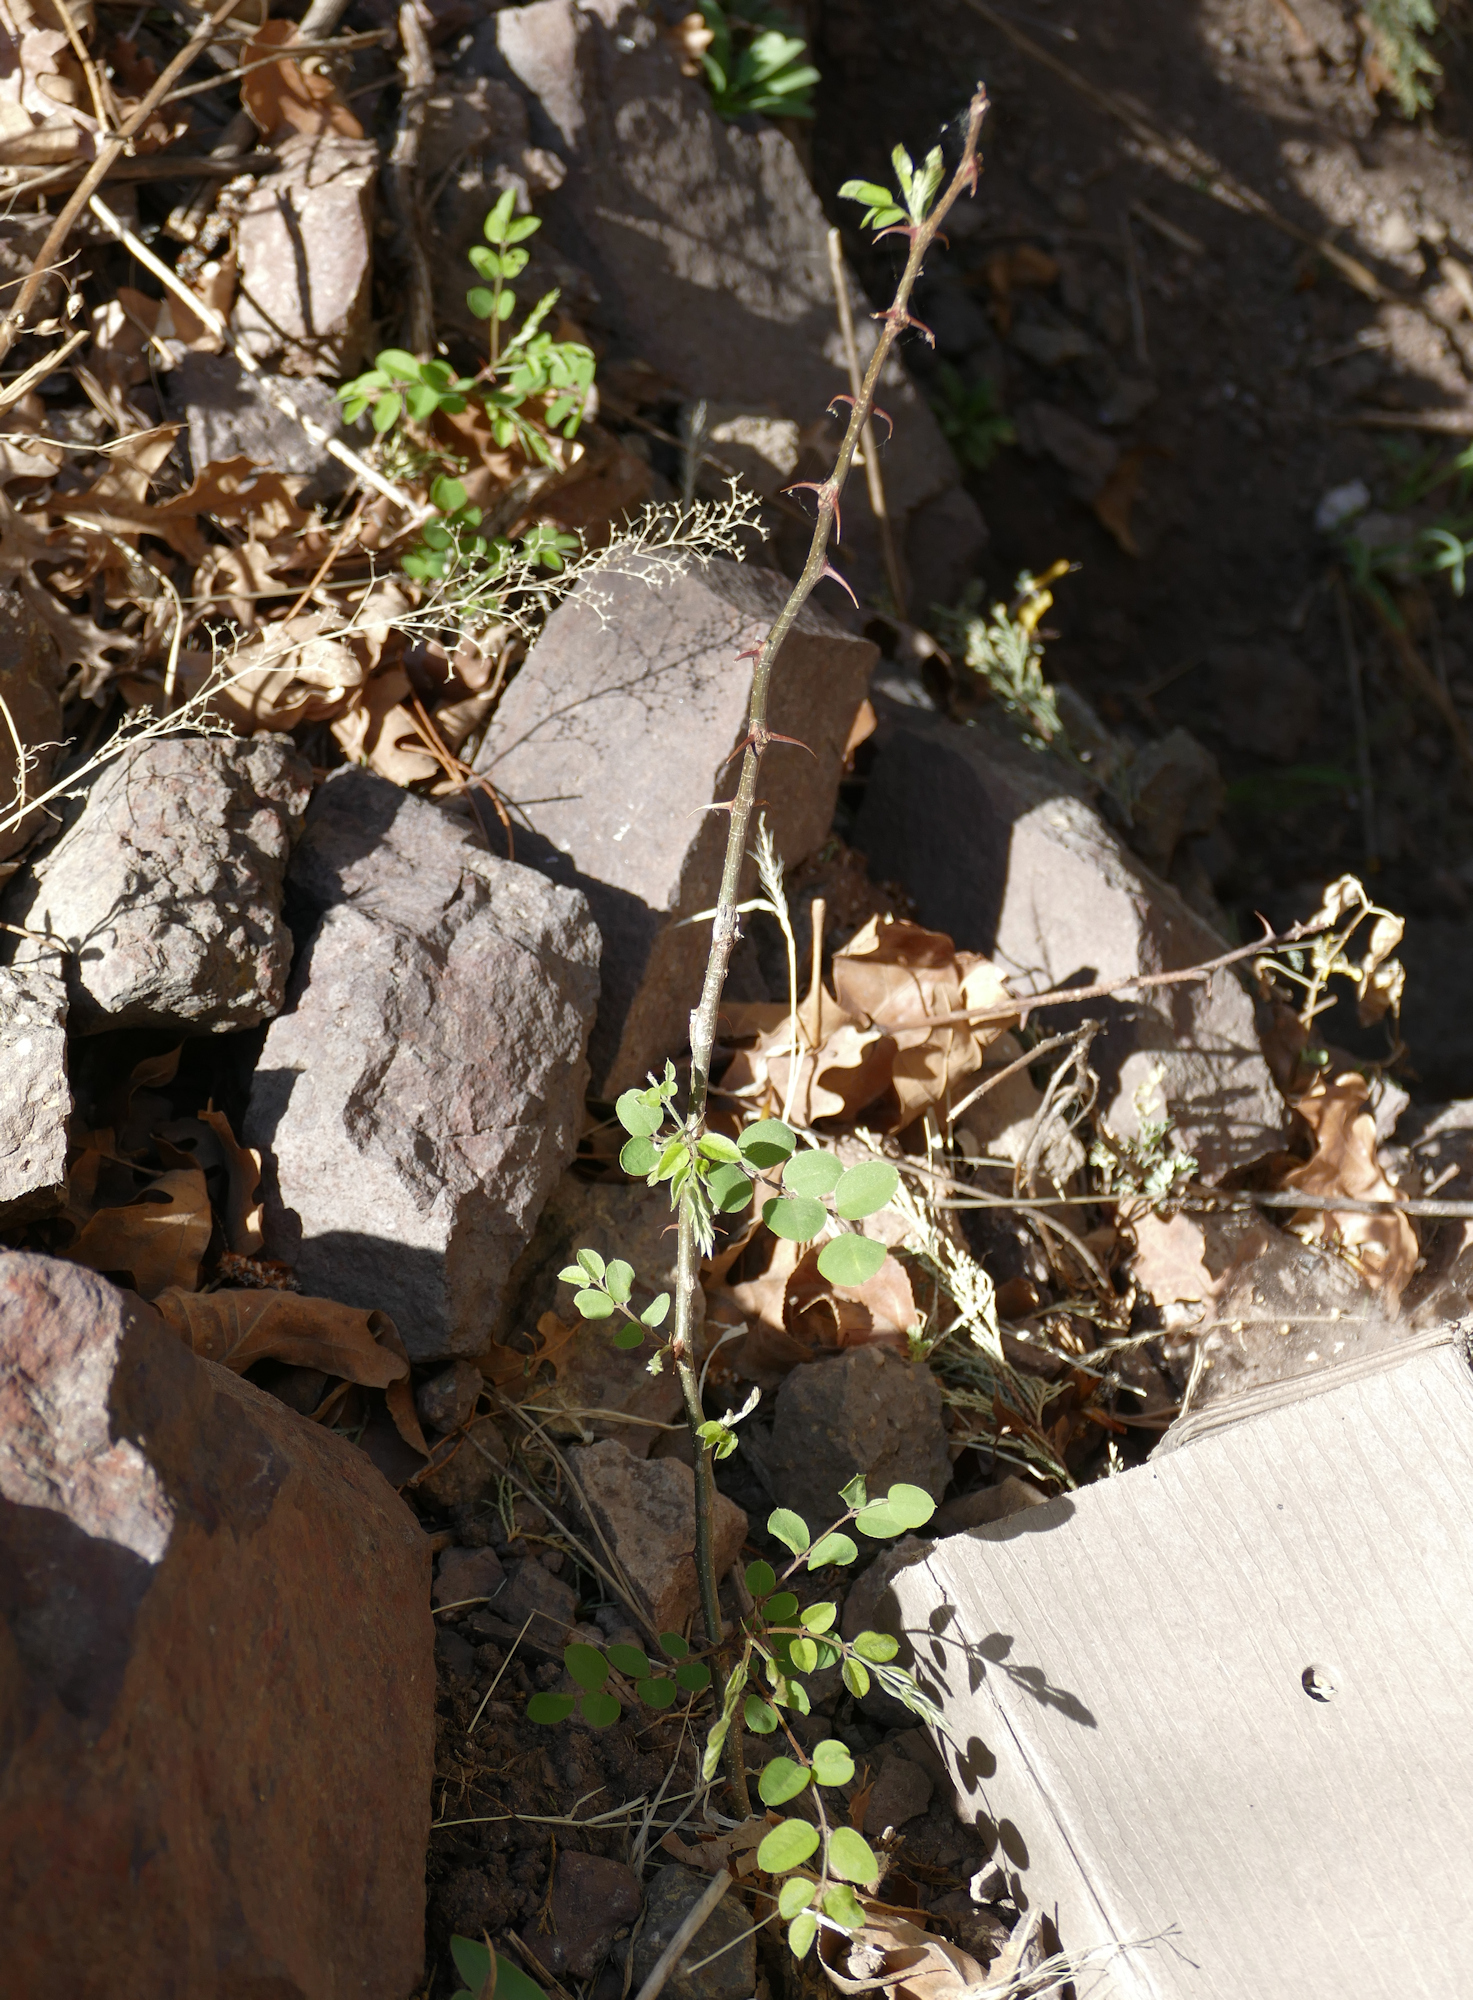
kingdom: Plantae
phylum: Tracheophyta
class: Magnoliopsida
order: Fabales
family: Fabaceae
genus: Robinia
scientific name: Robinia neomexicana
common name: New mexico locust
